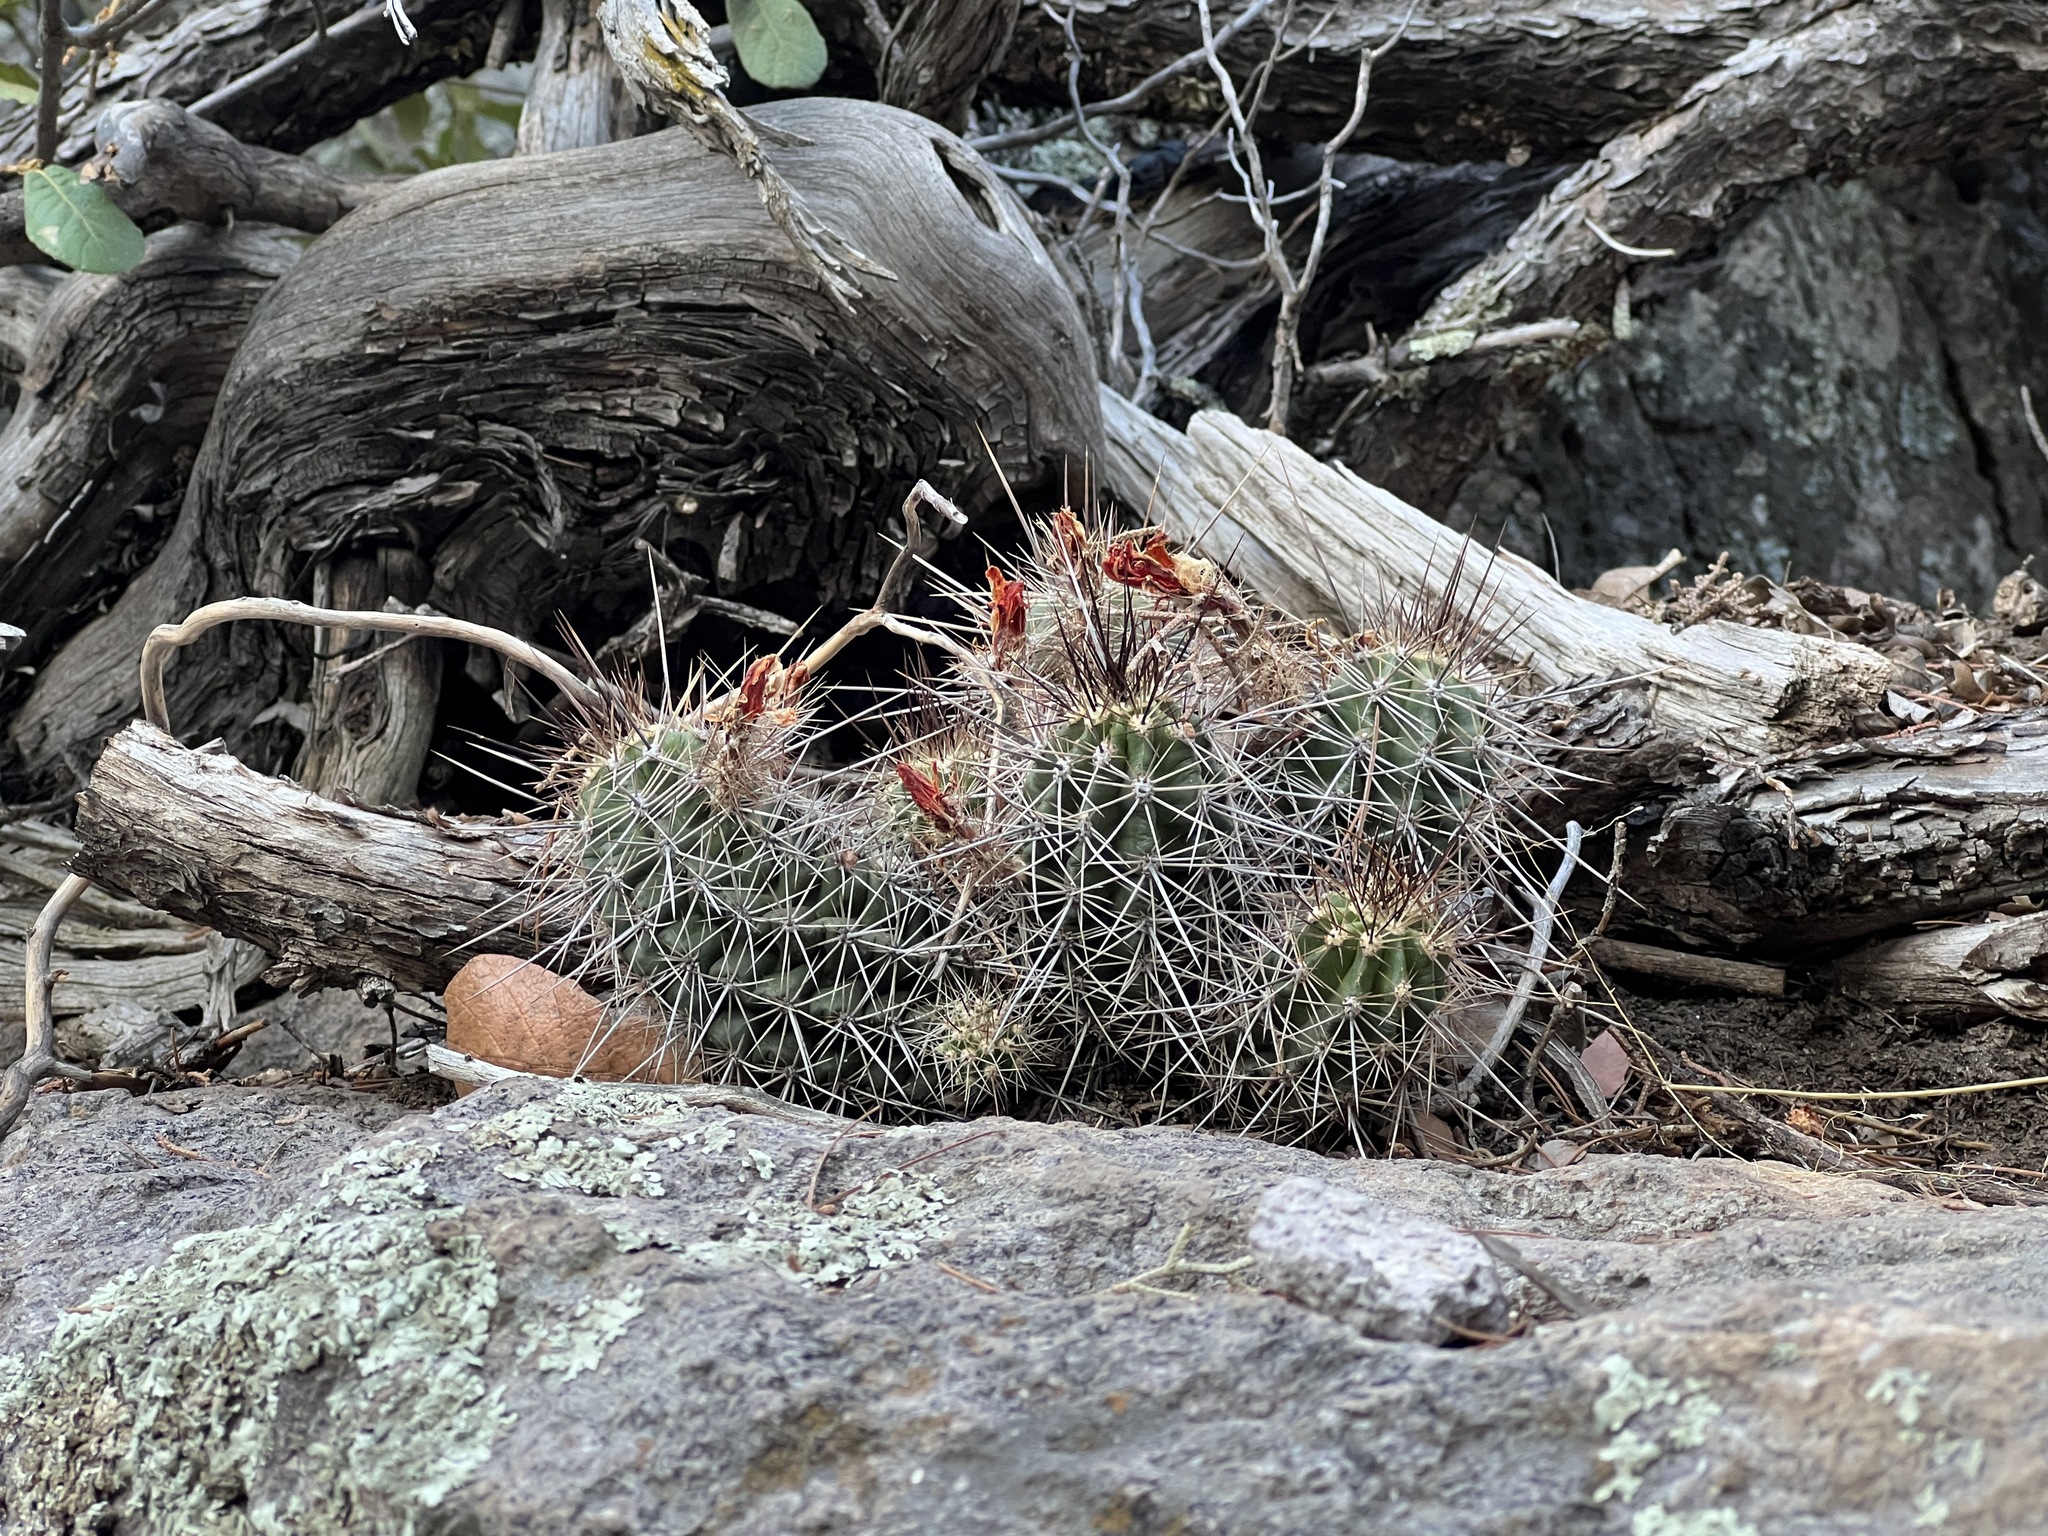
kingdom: Plantae
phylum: Tracheophyta
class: Magnoliopsida
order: Caryophyllales
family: Cactaceae
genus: Echinocereus
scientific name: Echinocereus coccineus
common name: Scarlet hedgehog cactus
